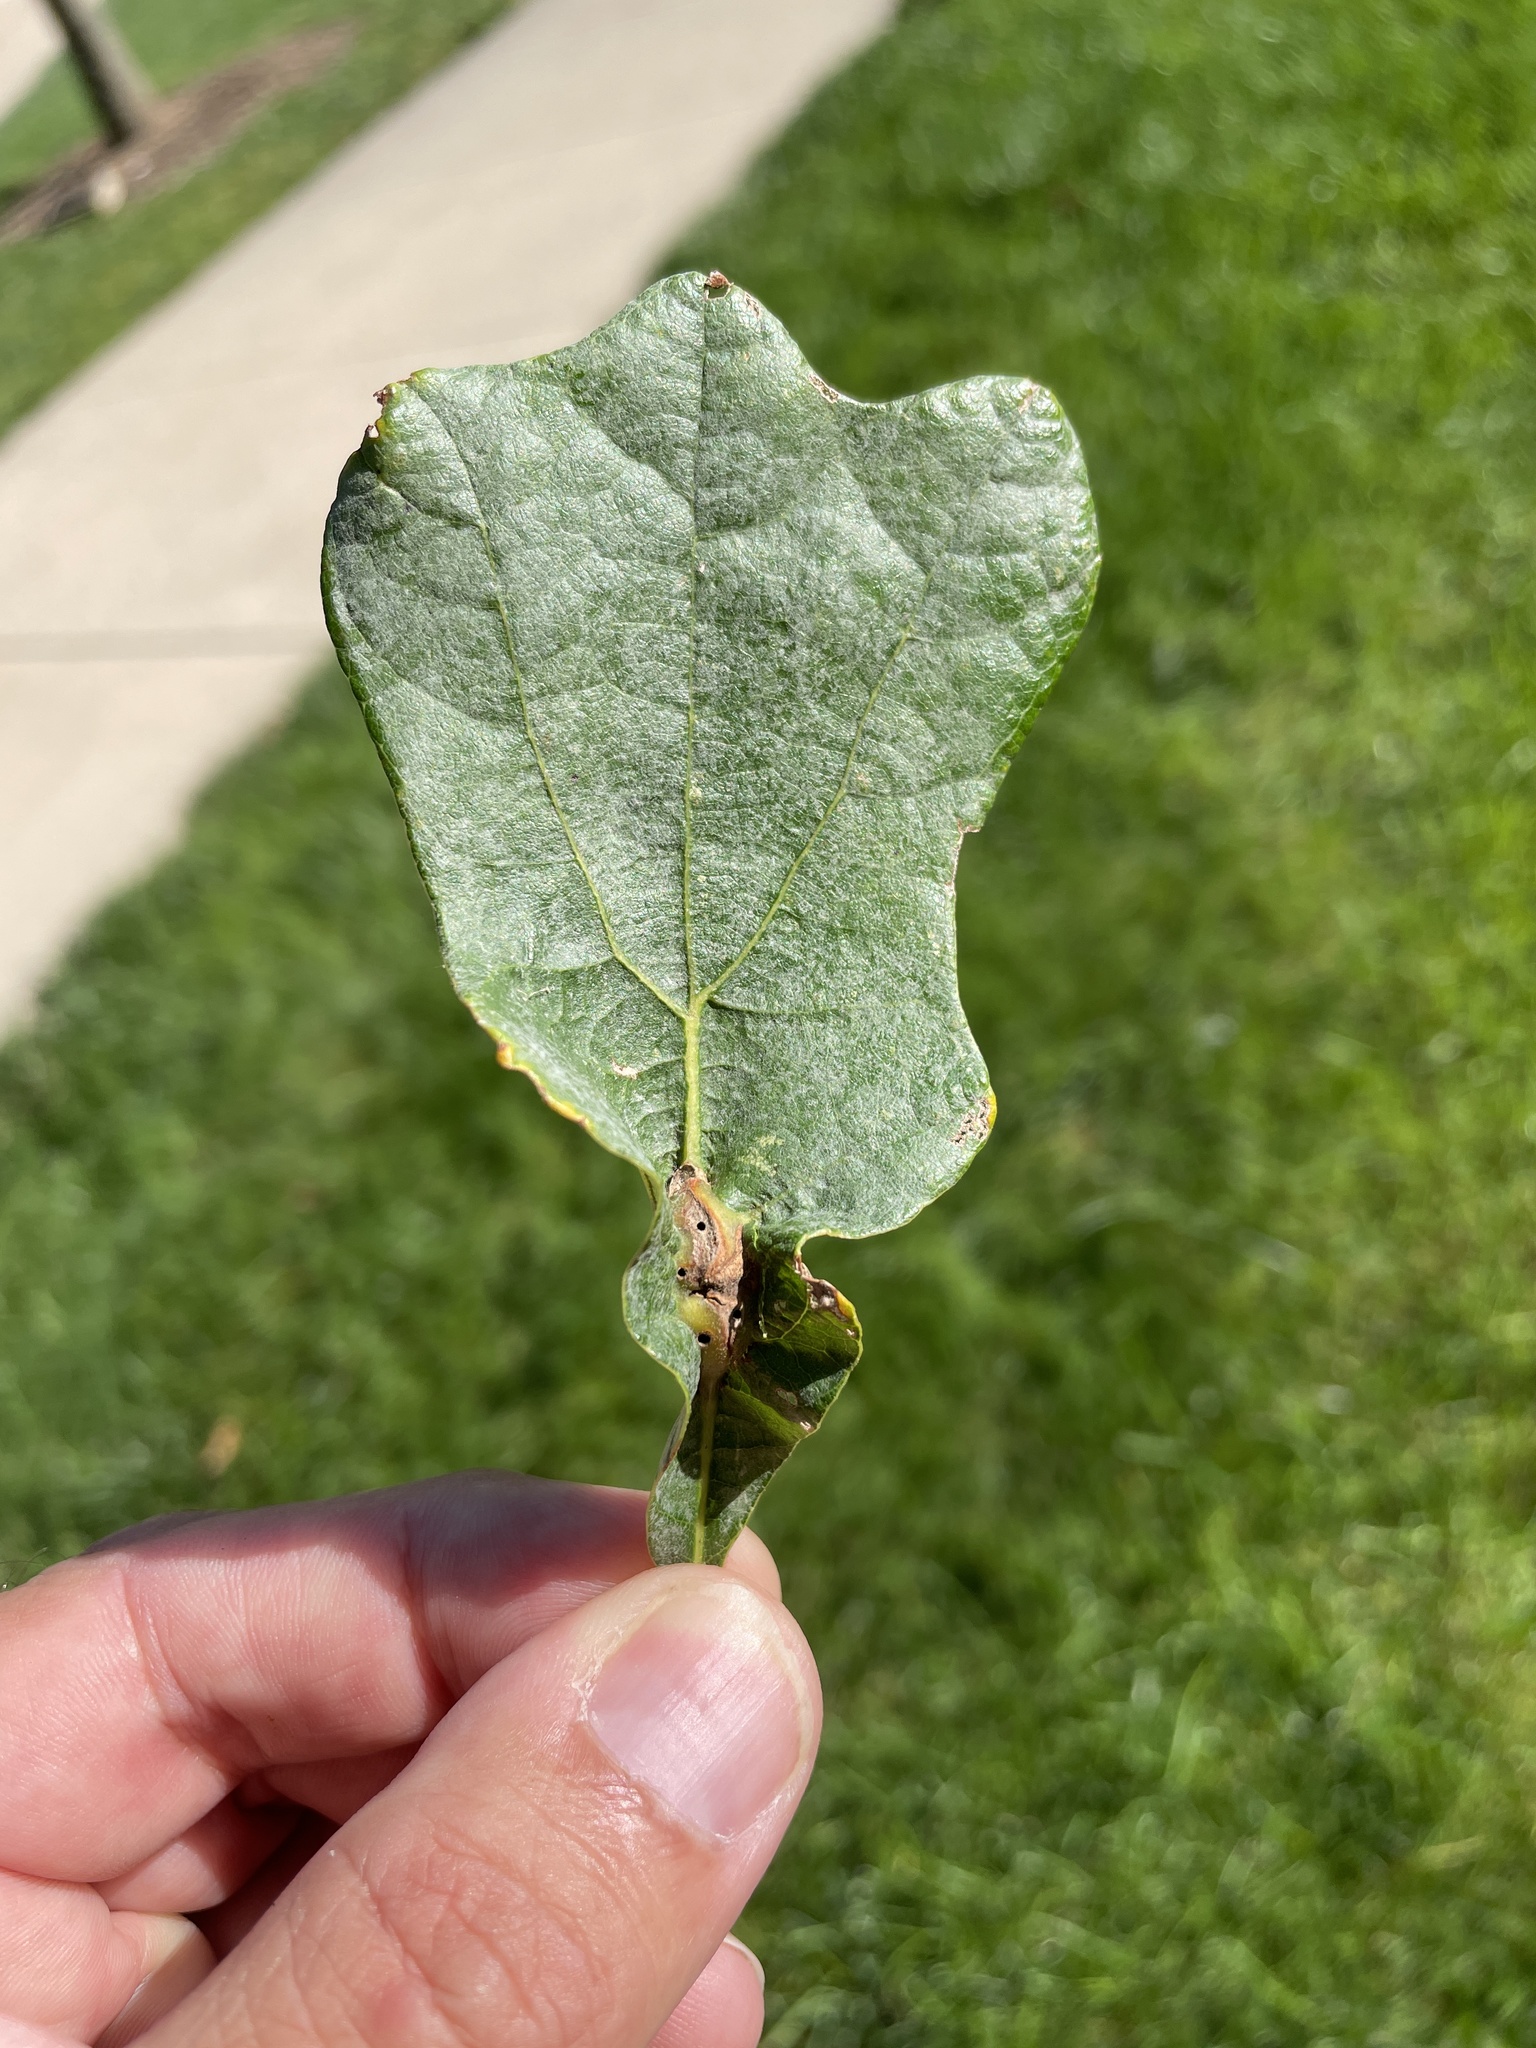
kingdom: Animalia
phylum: Arthropoda
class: Insecta
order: Hymenoptera
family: Cynipidae
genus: Bassettia
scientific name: Bassettia flavipes
